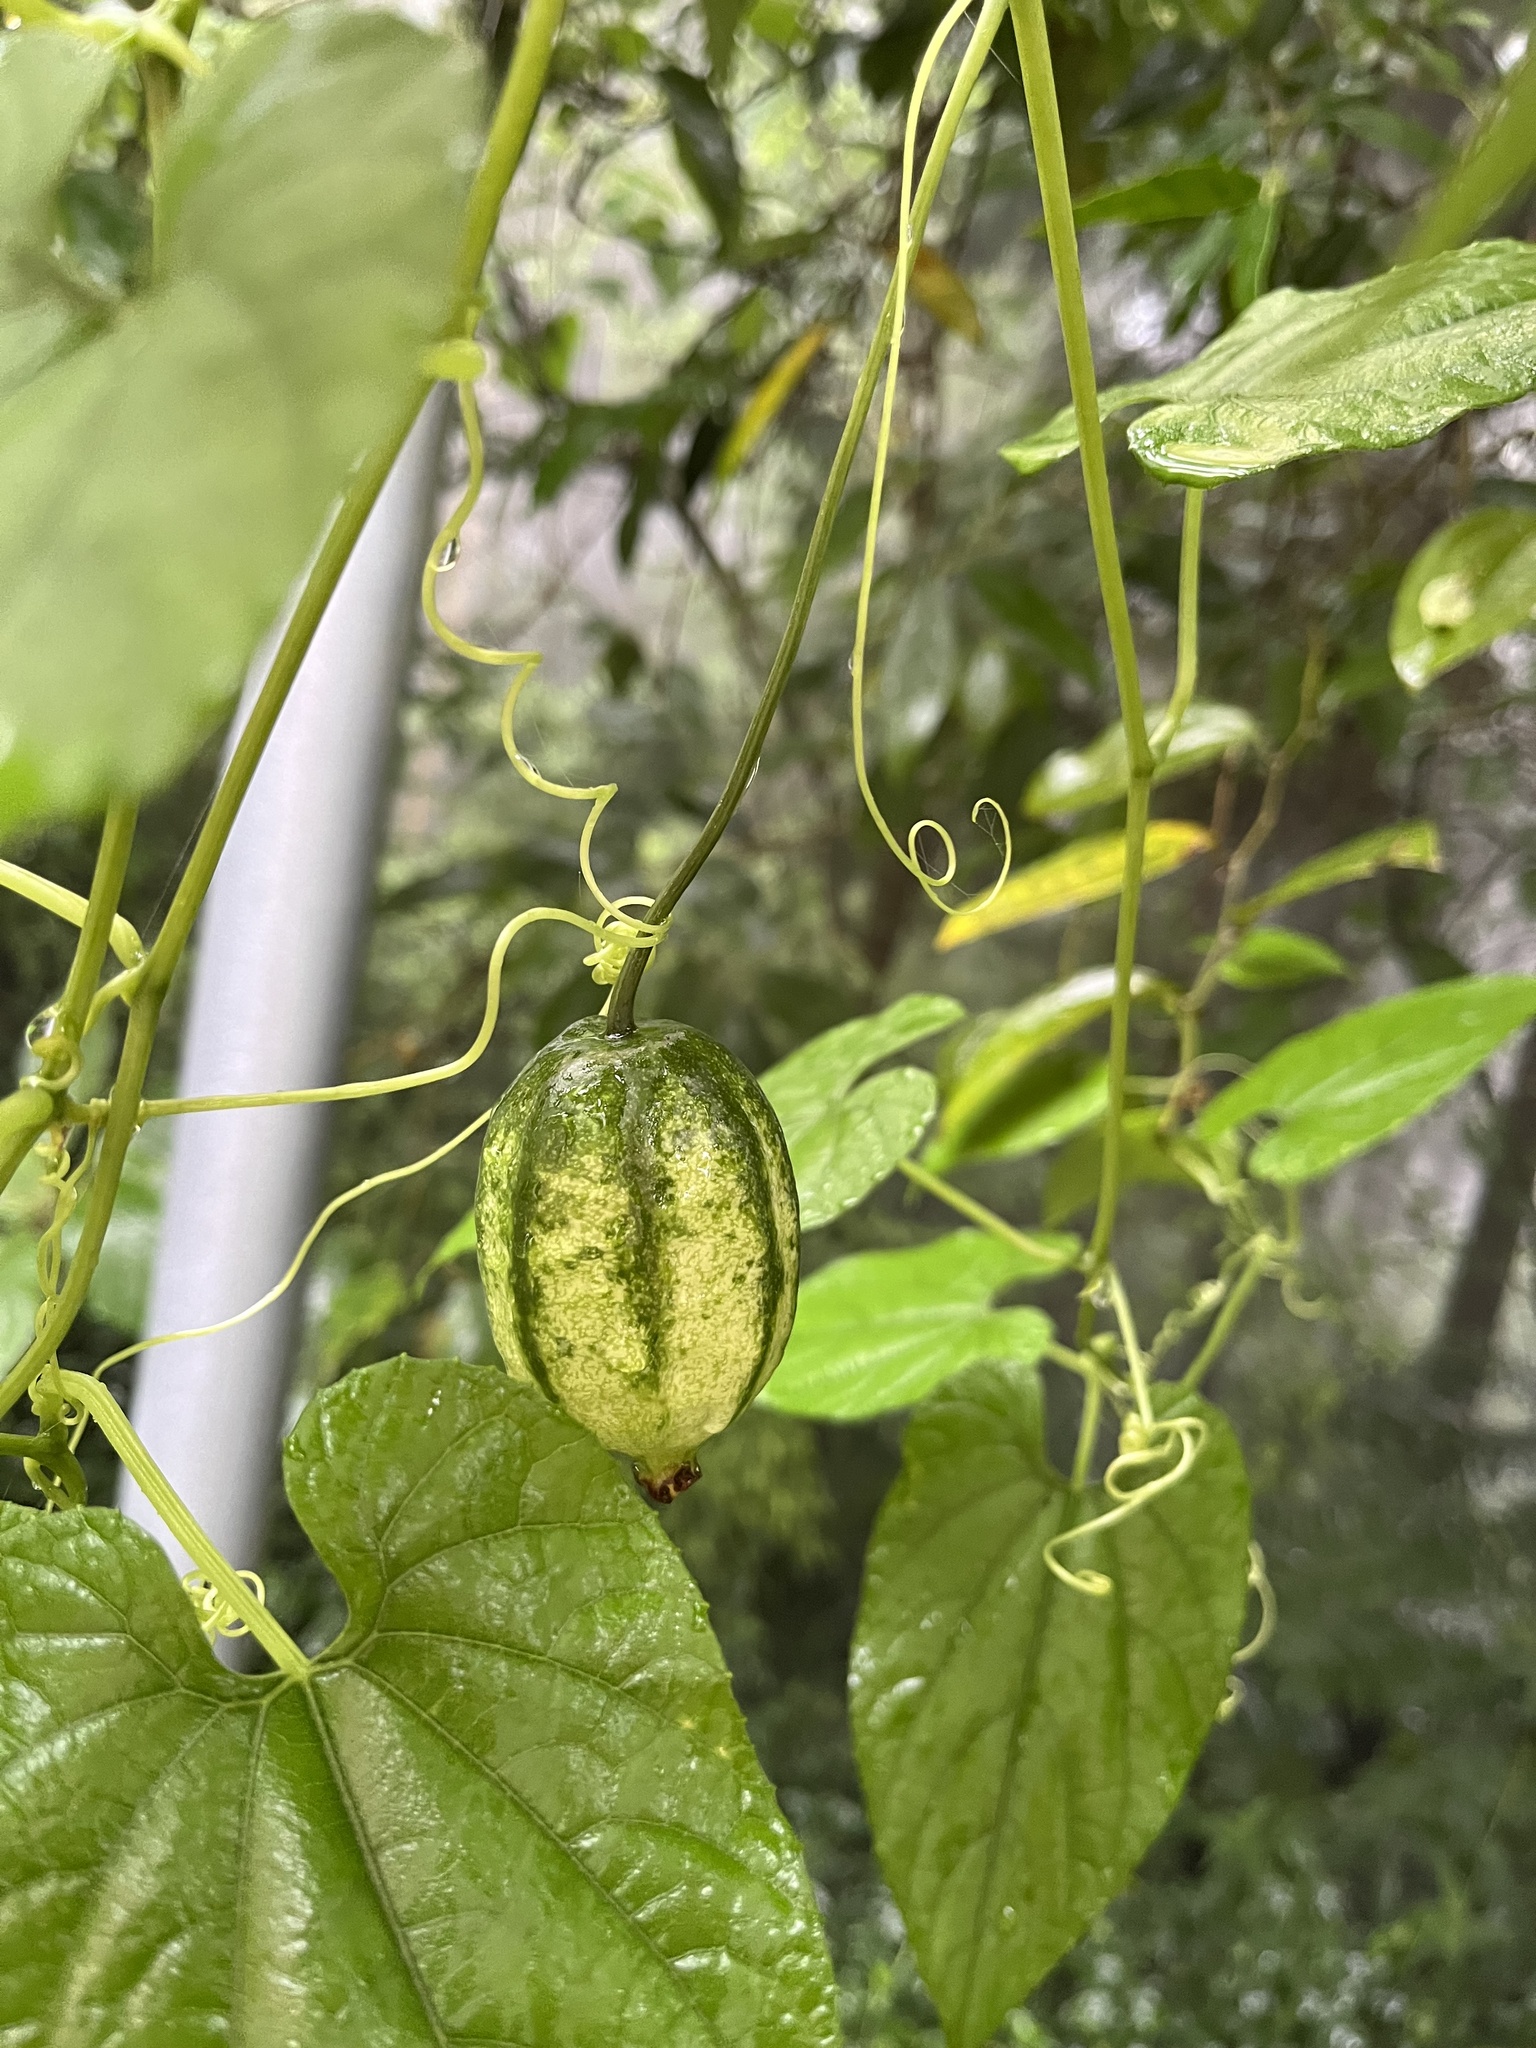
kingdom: Plantae
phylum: Tracheophyta
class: Magnoliopsida
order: Cucurbitales
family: Cucurbitaceae
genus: Thladiantha
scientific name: Thladiantha punctata
